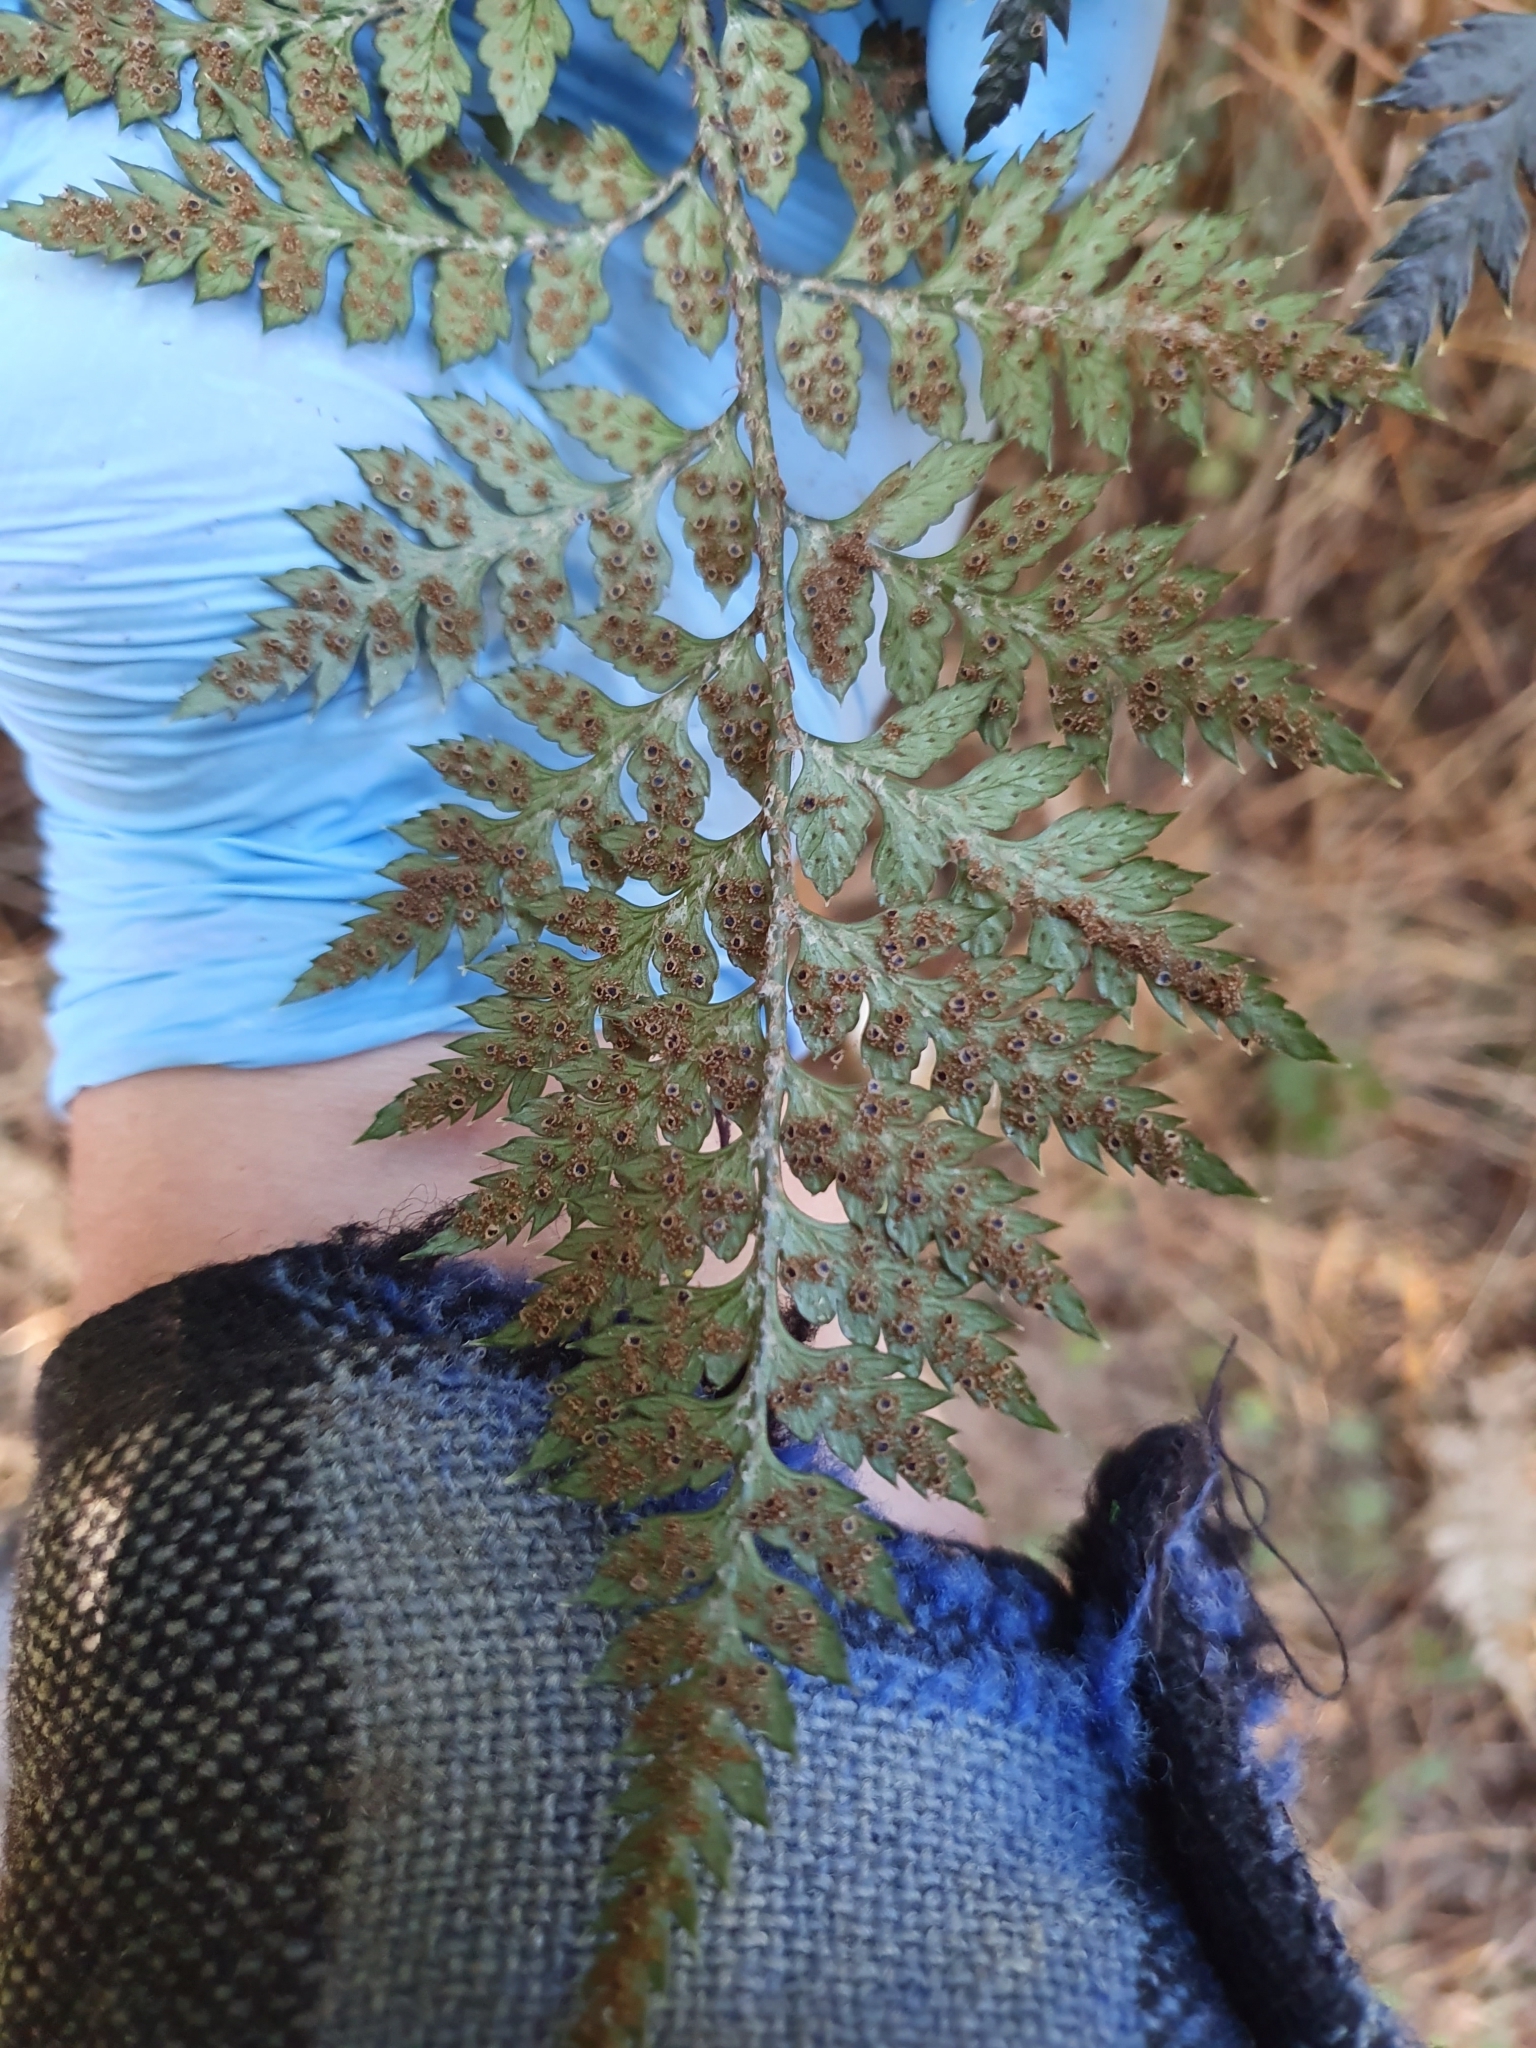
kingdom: Plantae
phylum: Tracheophyta
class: Polypodiopsida
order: Polypodiales
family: Dryopteridaceae
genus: Polystichum
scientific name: Polystichum oculatum
